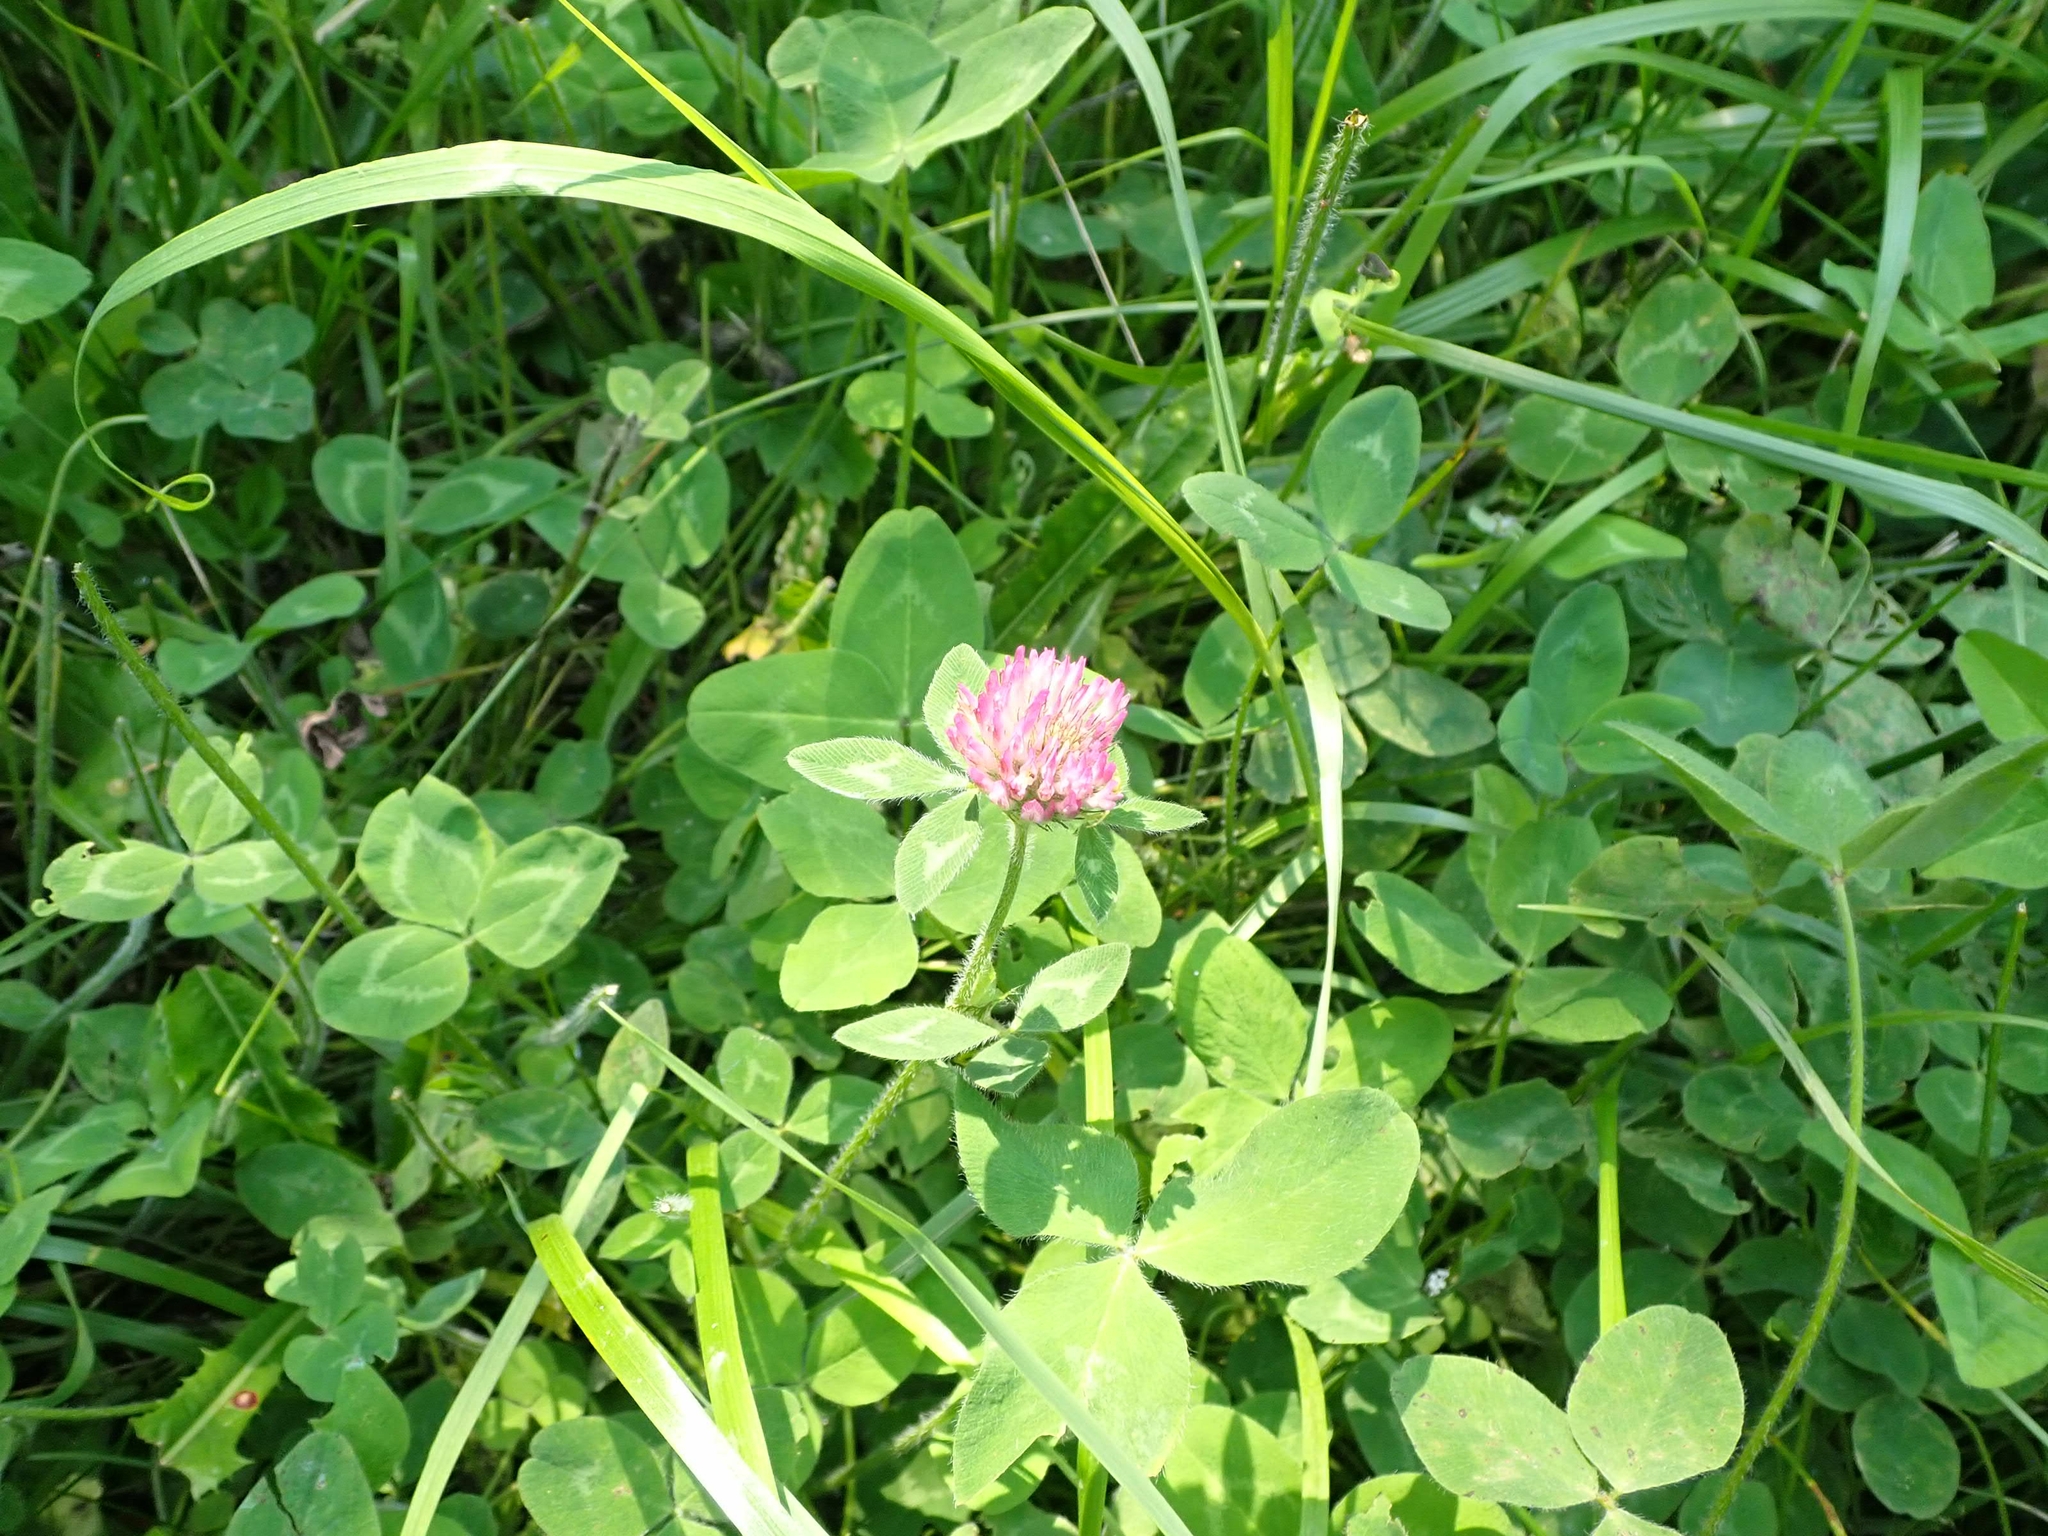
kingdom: Plantae
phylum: Tracheophyta
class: Magnoliopsida
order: Fabales
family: Fabaceae
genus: Trifolium
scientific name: Trifolium pratense
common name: Red clover
